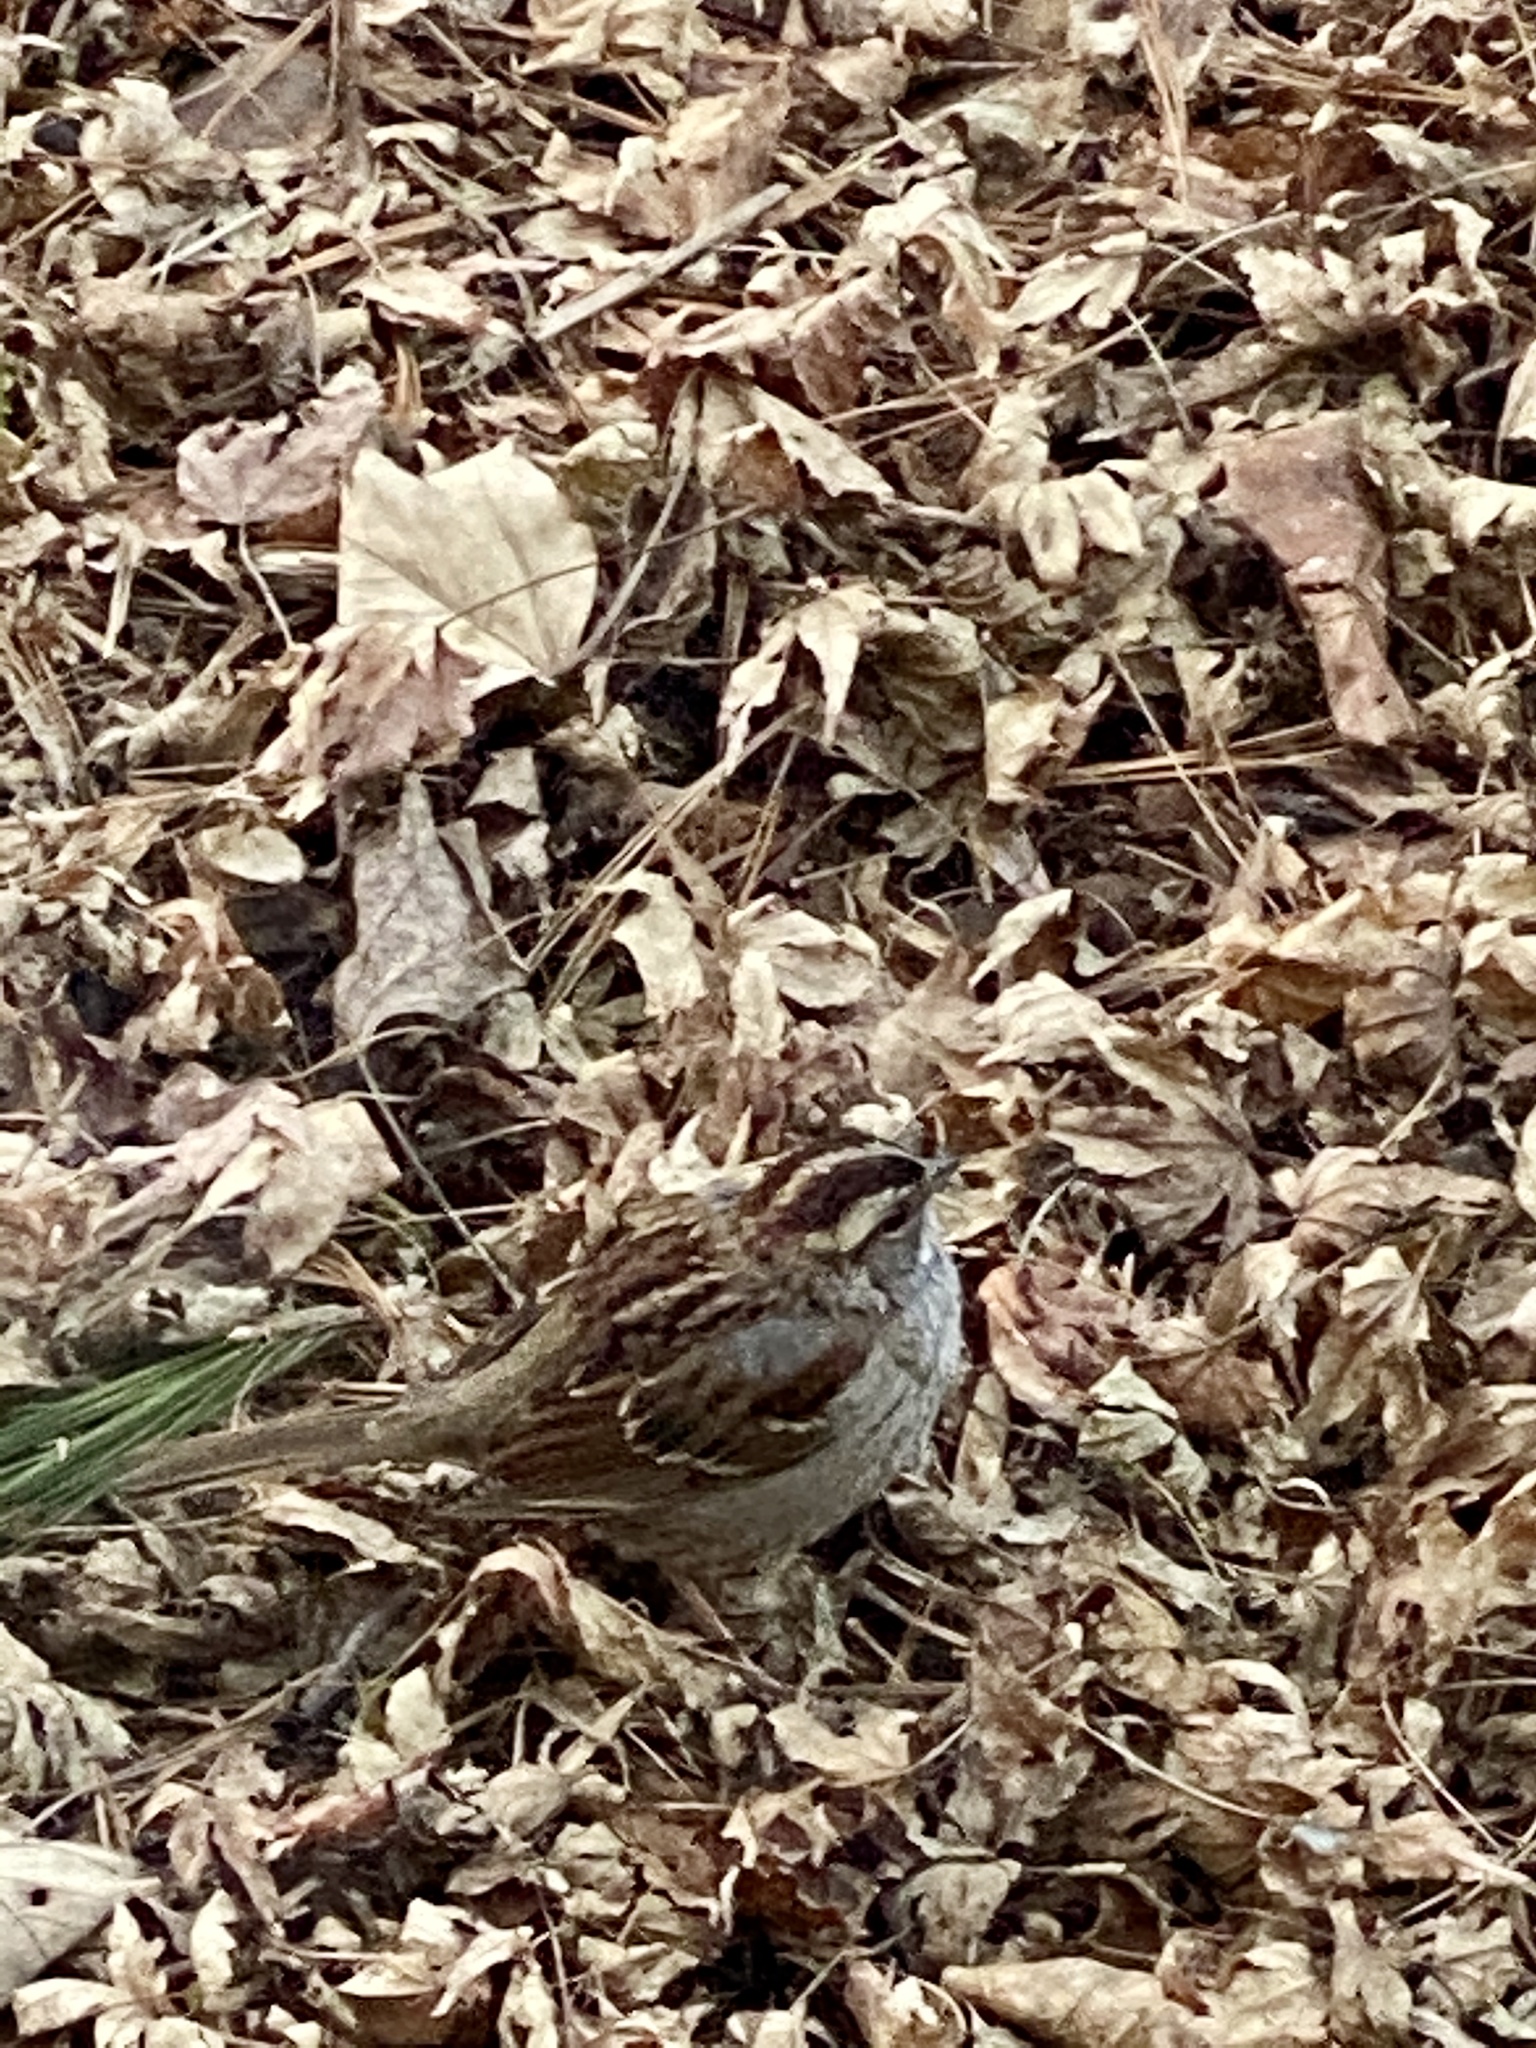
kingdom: Animalia
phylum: Chordata
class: Aves
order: Passeriformes
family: Passerellidae
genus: Zonotrichia
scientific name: Zonotrichia albicollis
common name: White-throated sparrow
